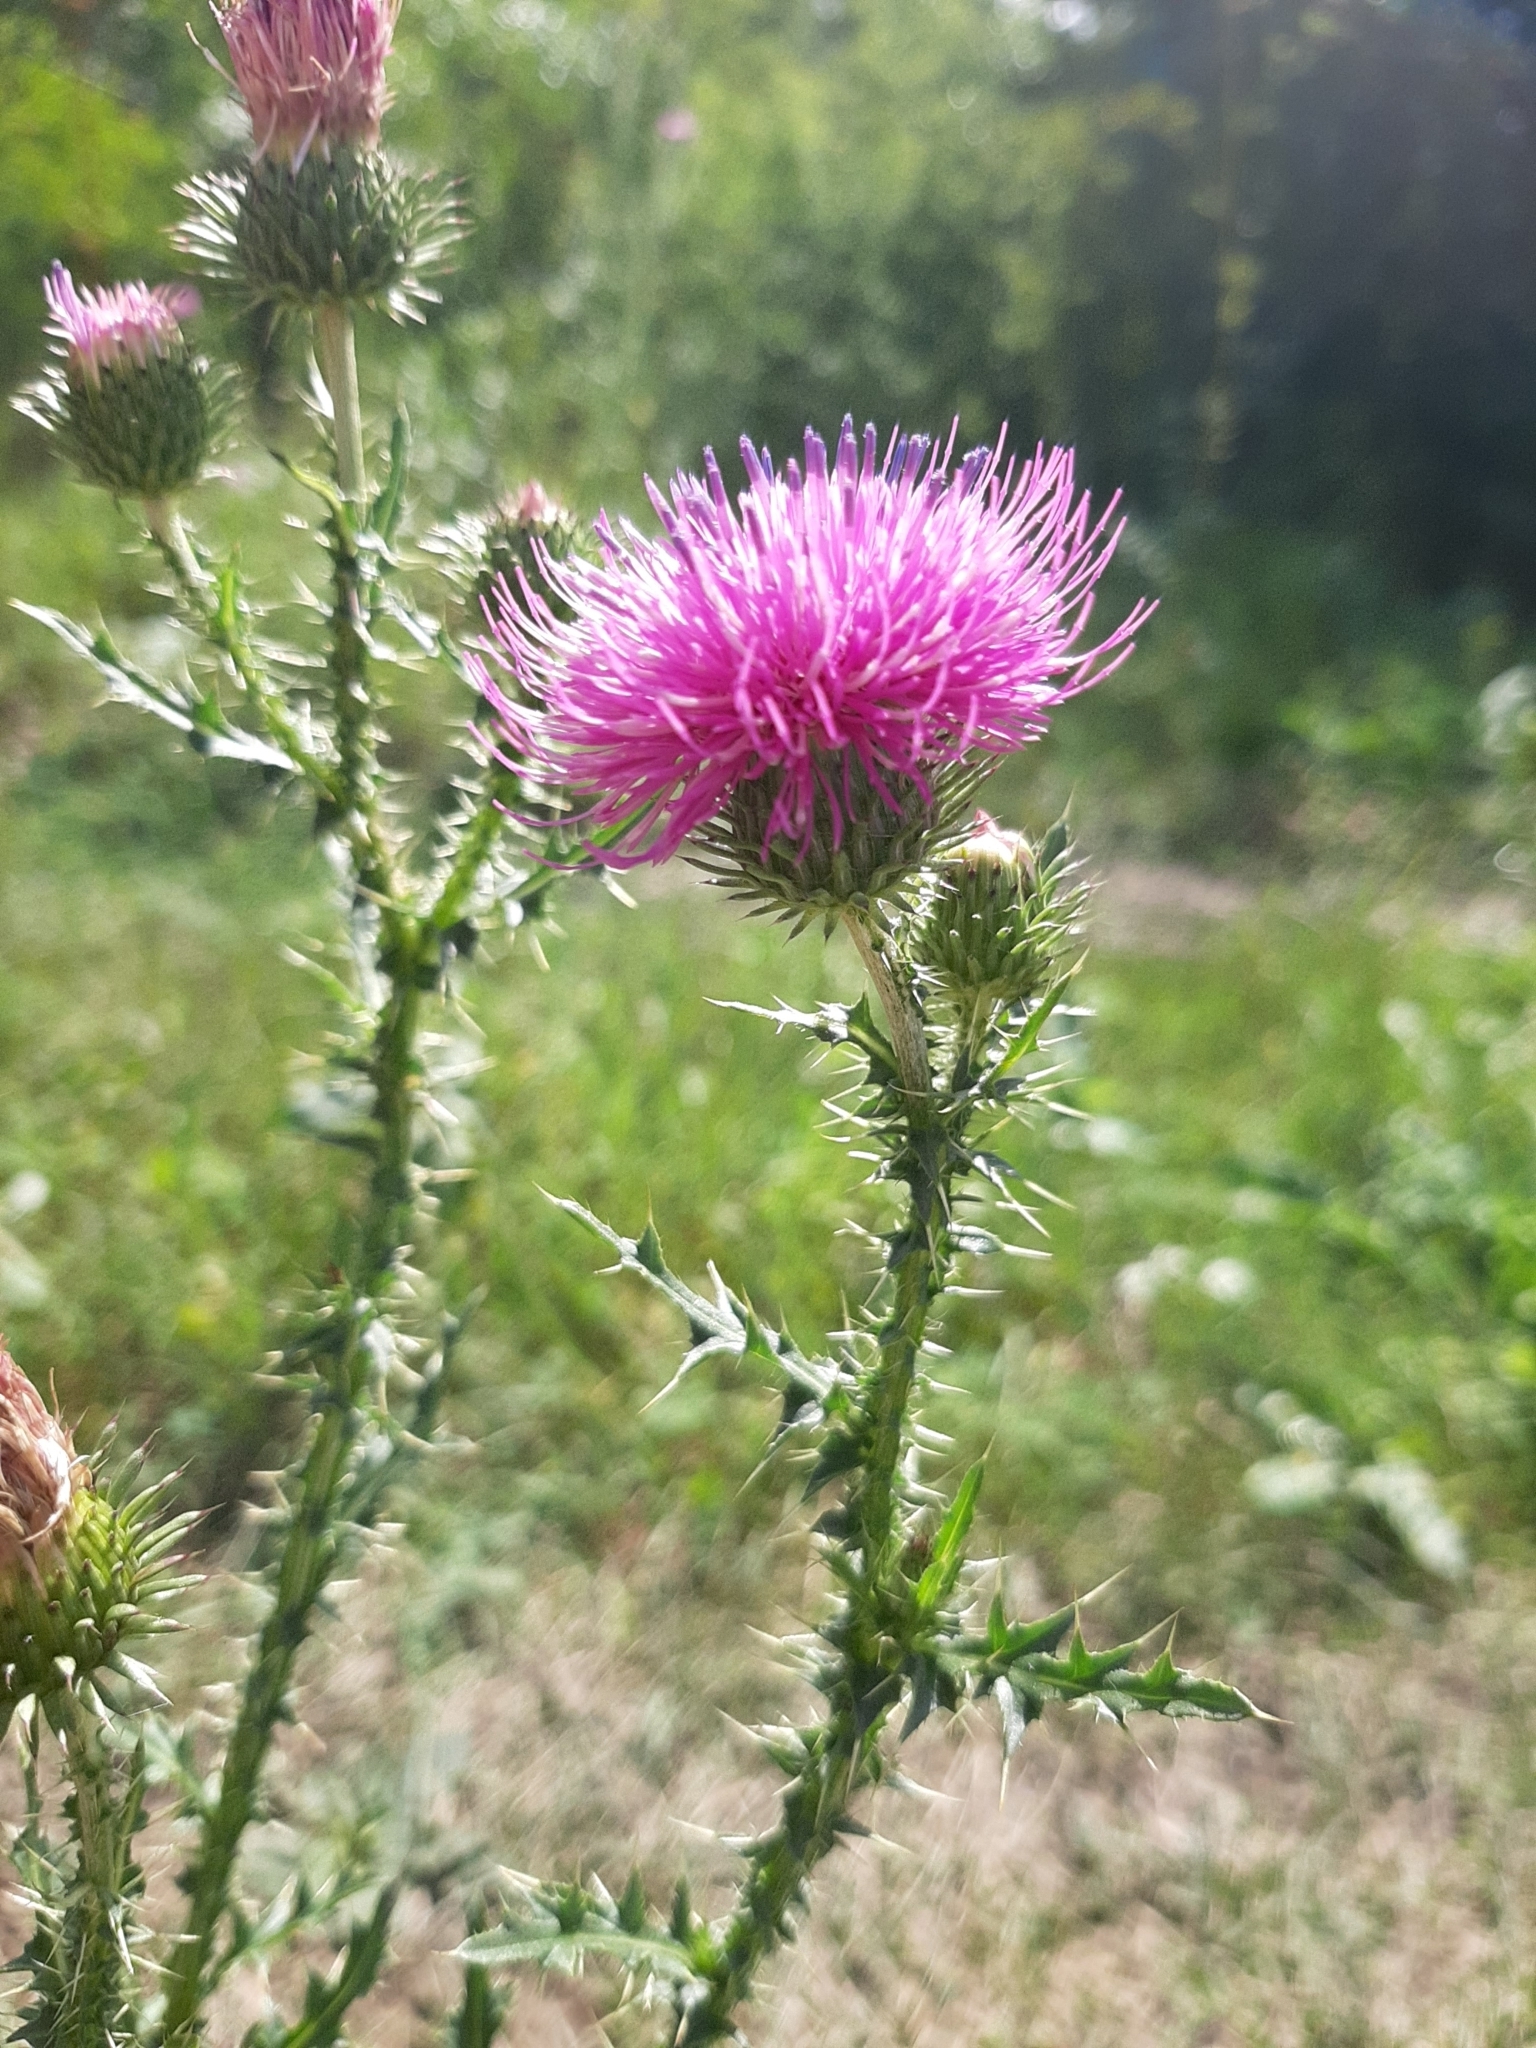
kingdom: Plantae
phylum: Tracheophyta
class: Magnoliopsida
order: Asterales
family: Asteraceae
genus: Carduus
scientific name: Carduus acanthoides
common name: Plumeless thistle
